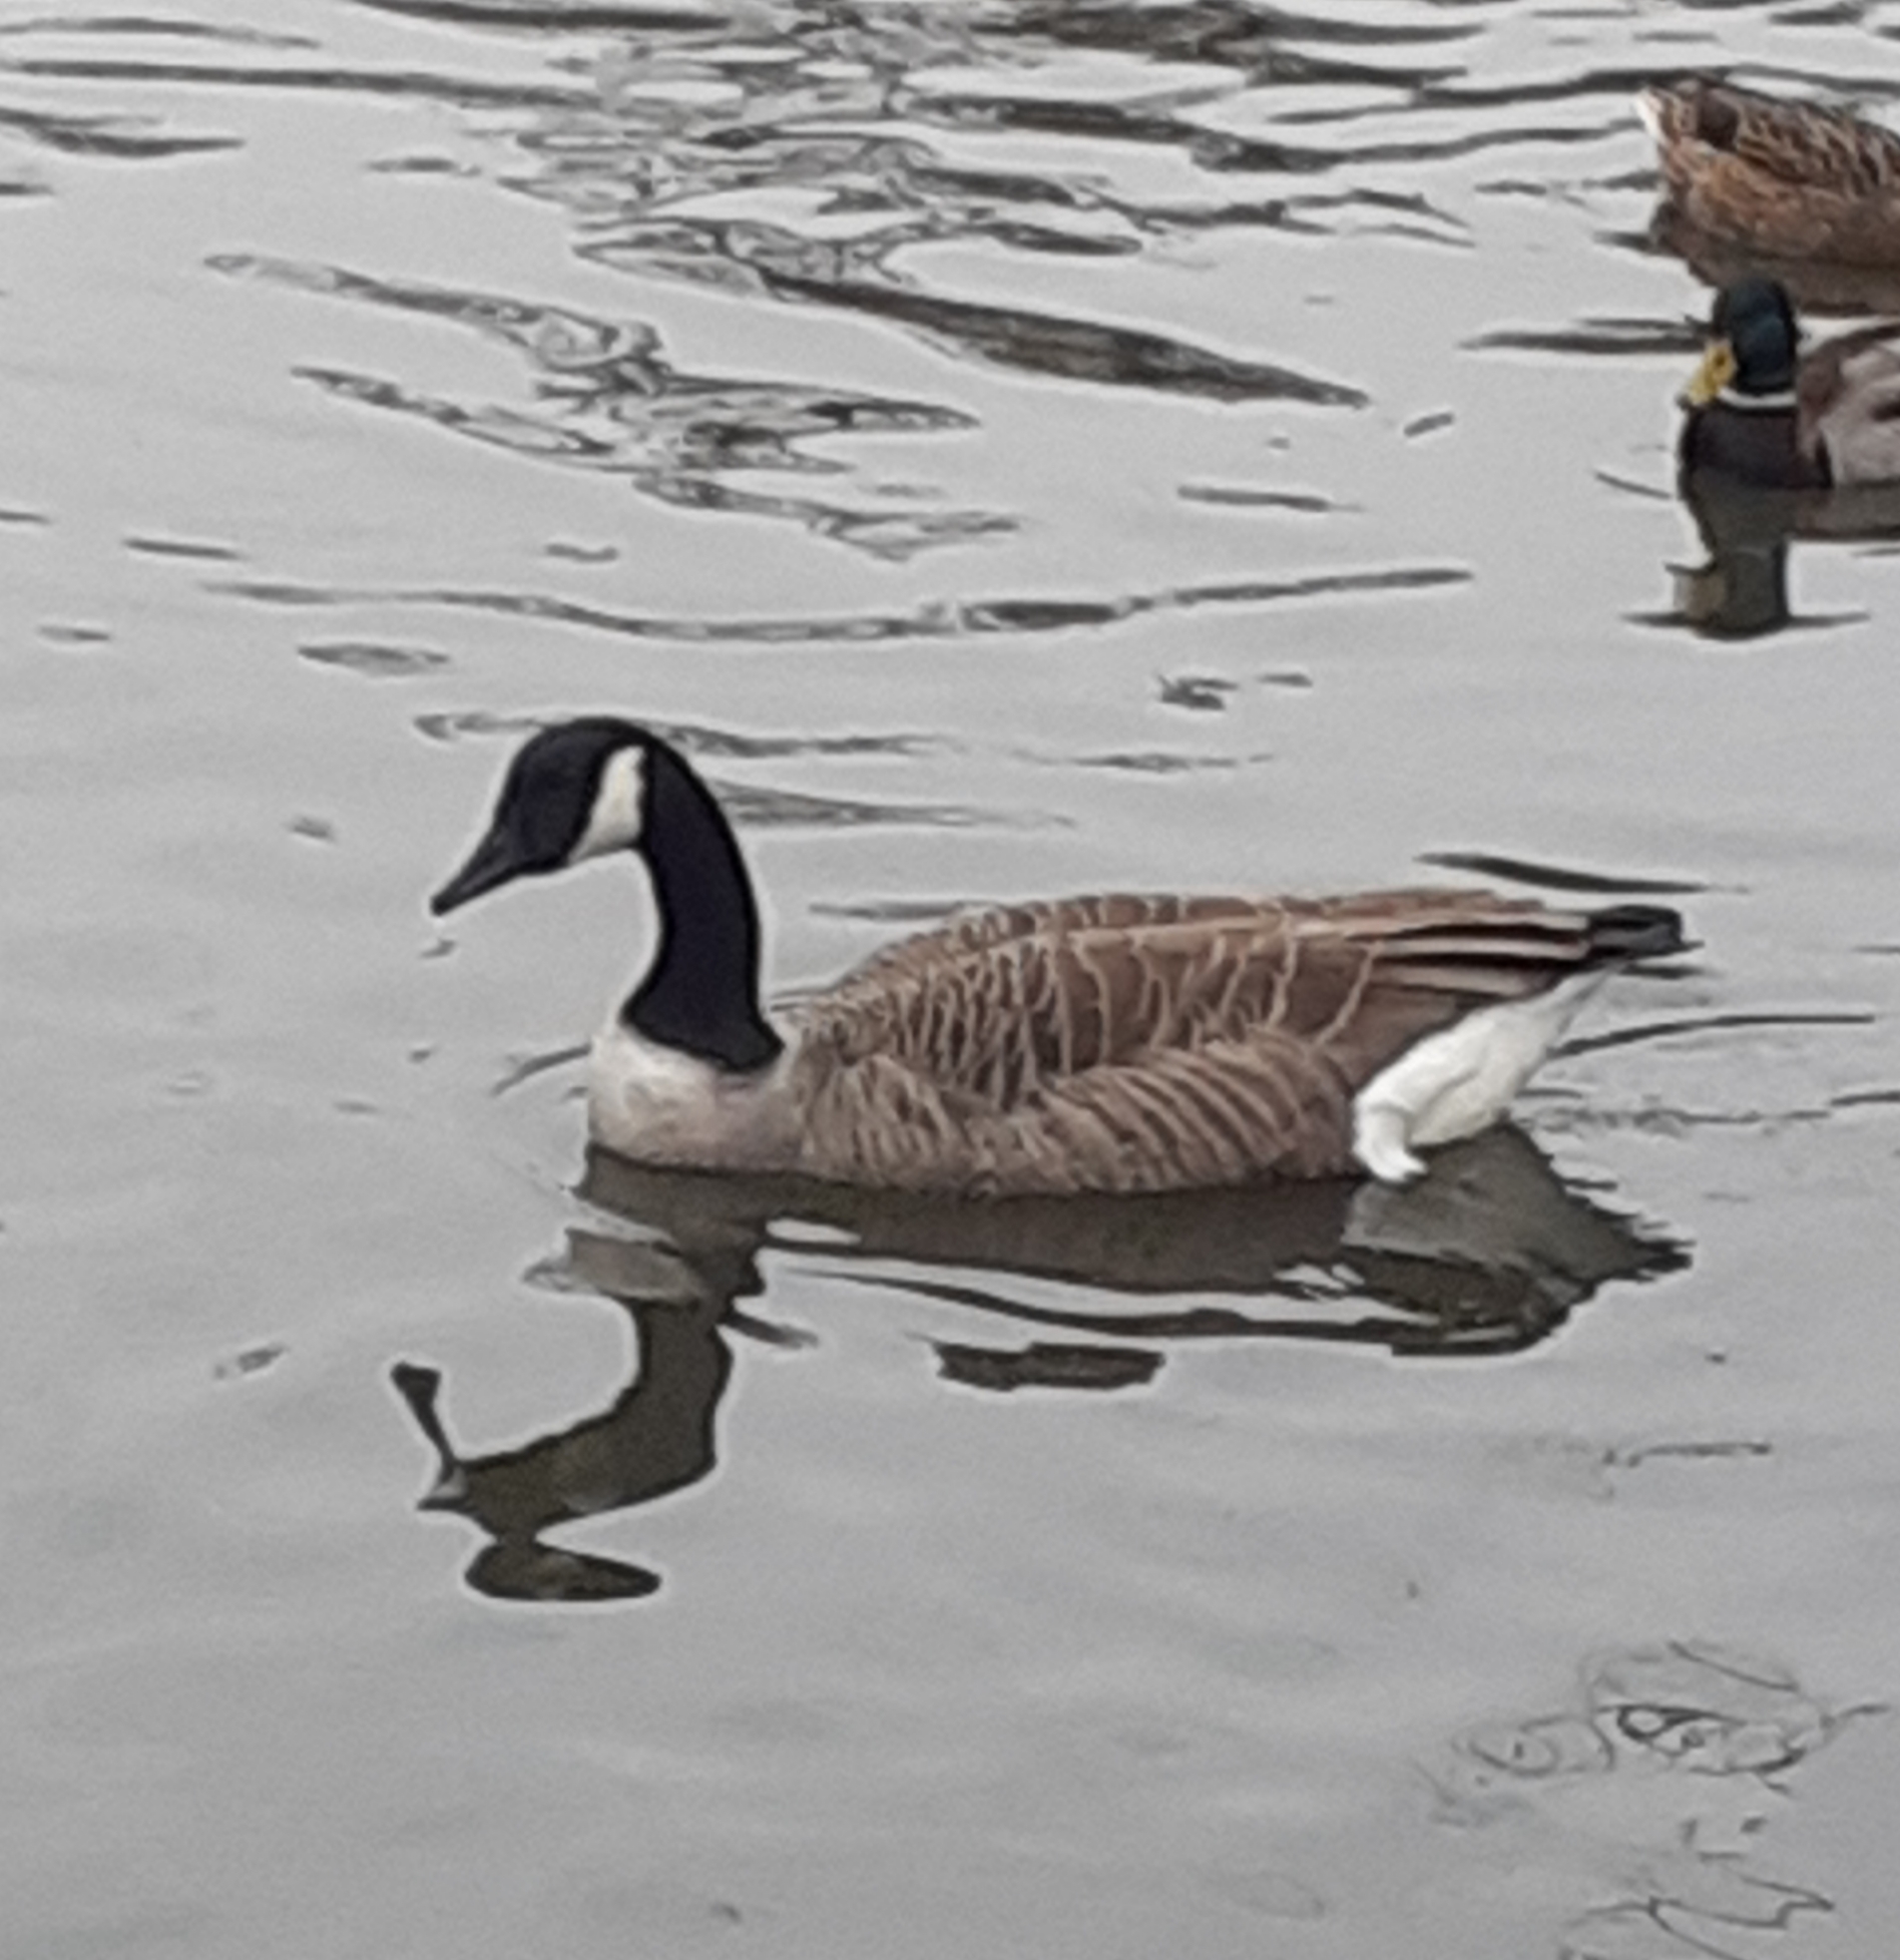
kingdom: Animalia
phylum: Chordata
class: Aves
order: Anseriformes
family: Anatidae
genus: Branta
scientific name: Branta canadensis
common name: Canada goose
